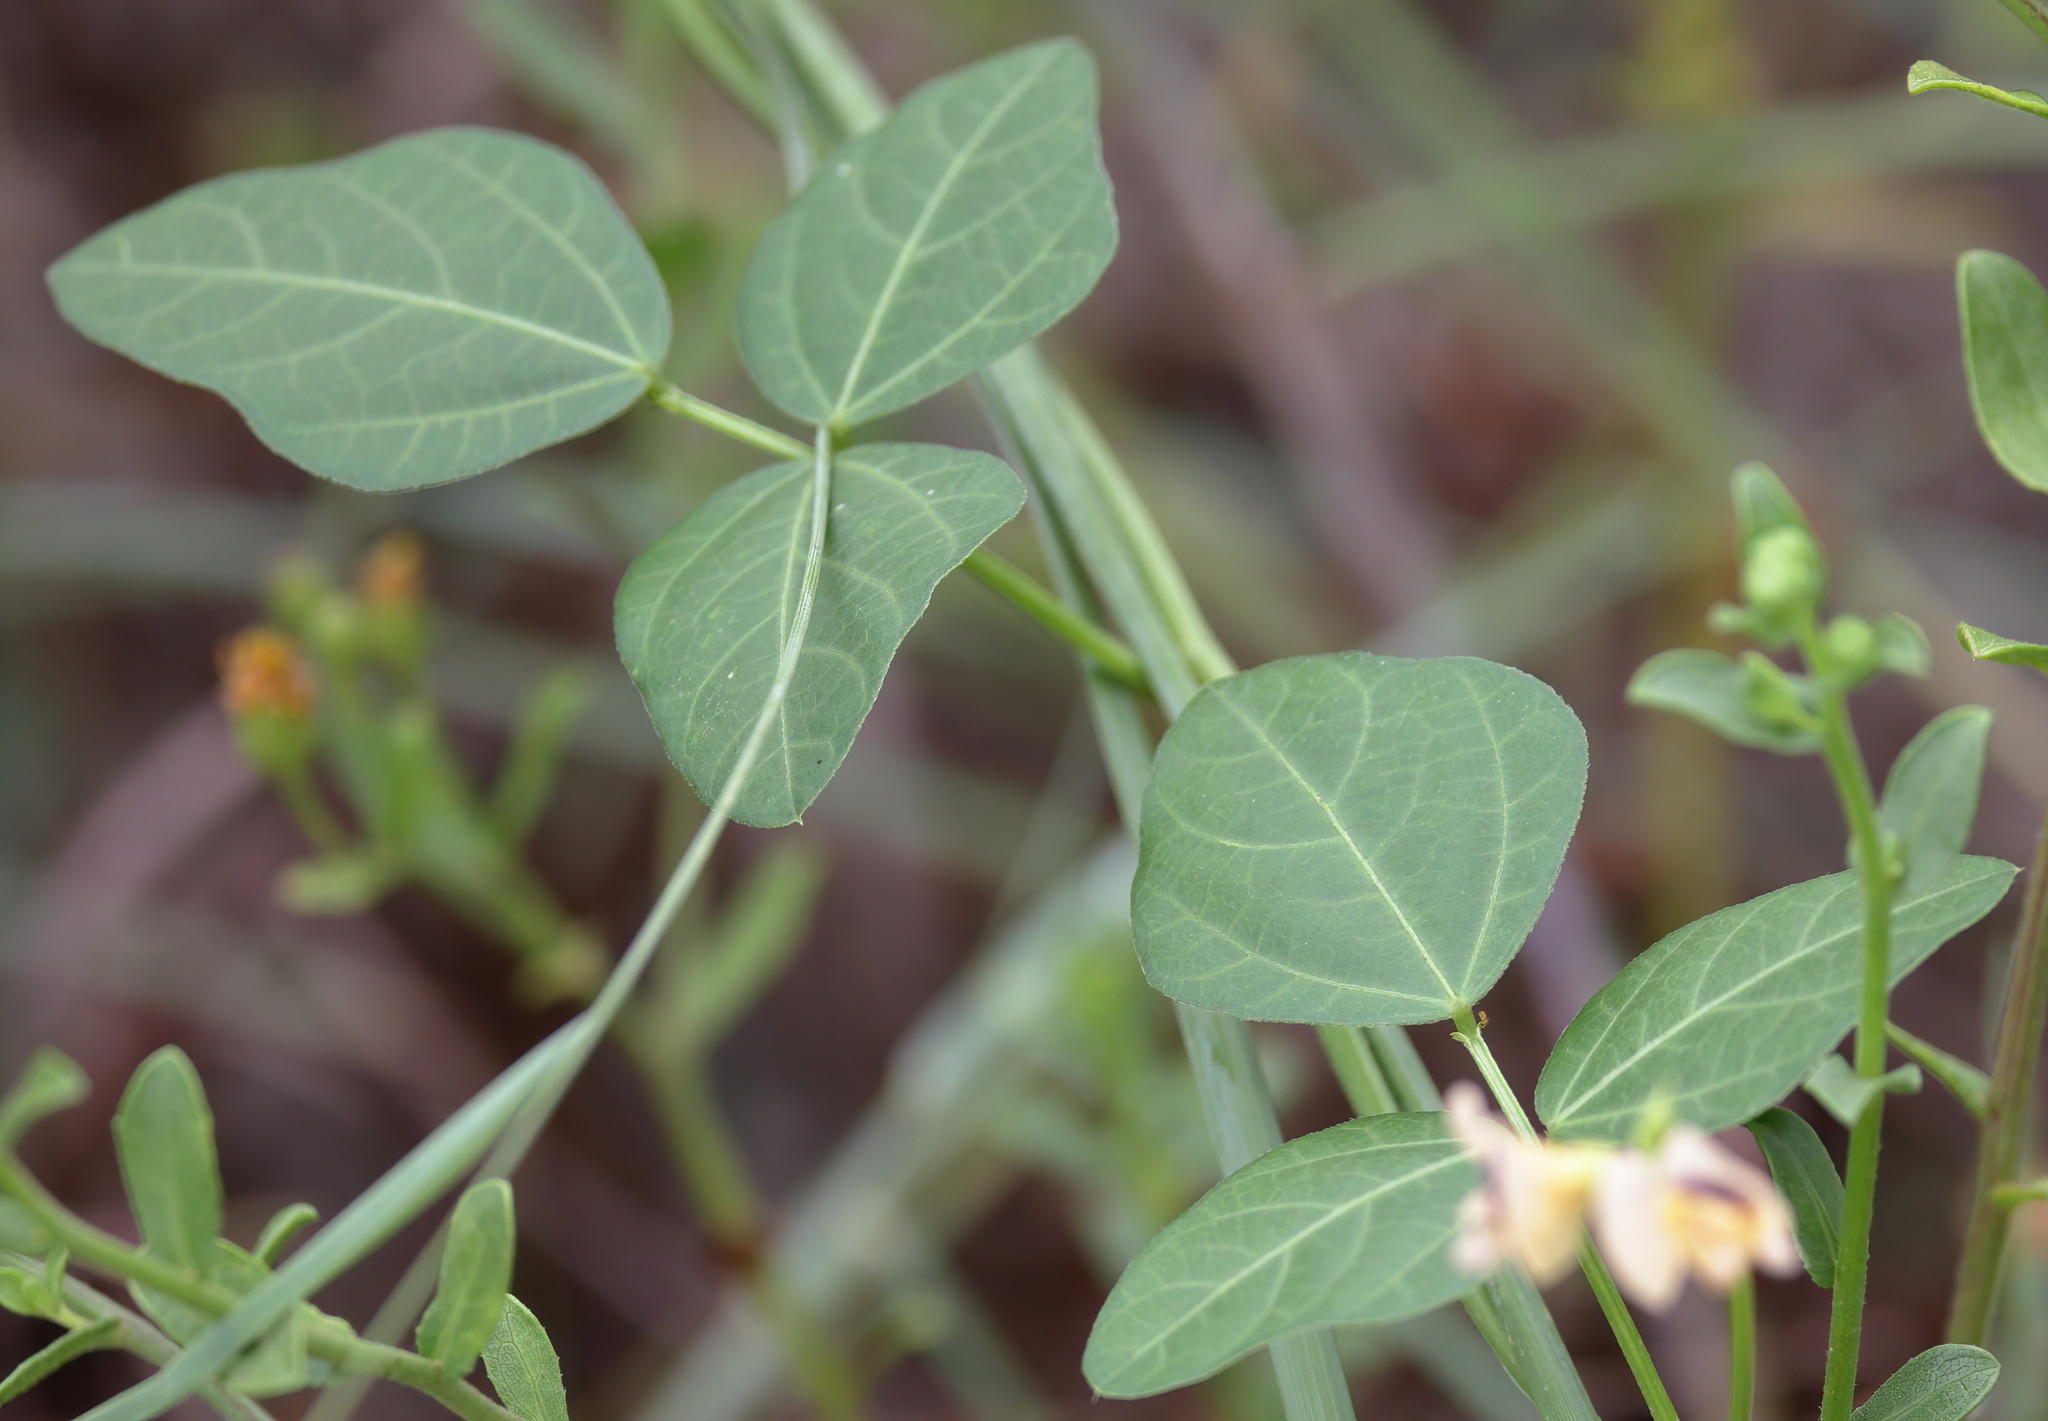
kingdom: Plantae
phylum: Tracheophyta
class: Magnoliopsida
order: Fabales
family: Fabaceae
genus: Strophostyles
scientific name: Strophostyles helvola
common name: Trailing wild bean
